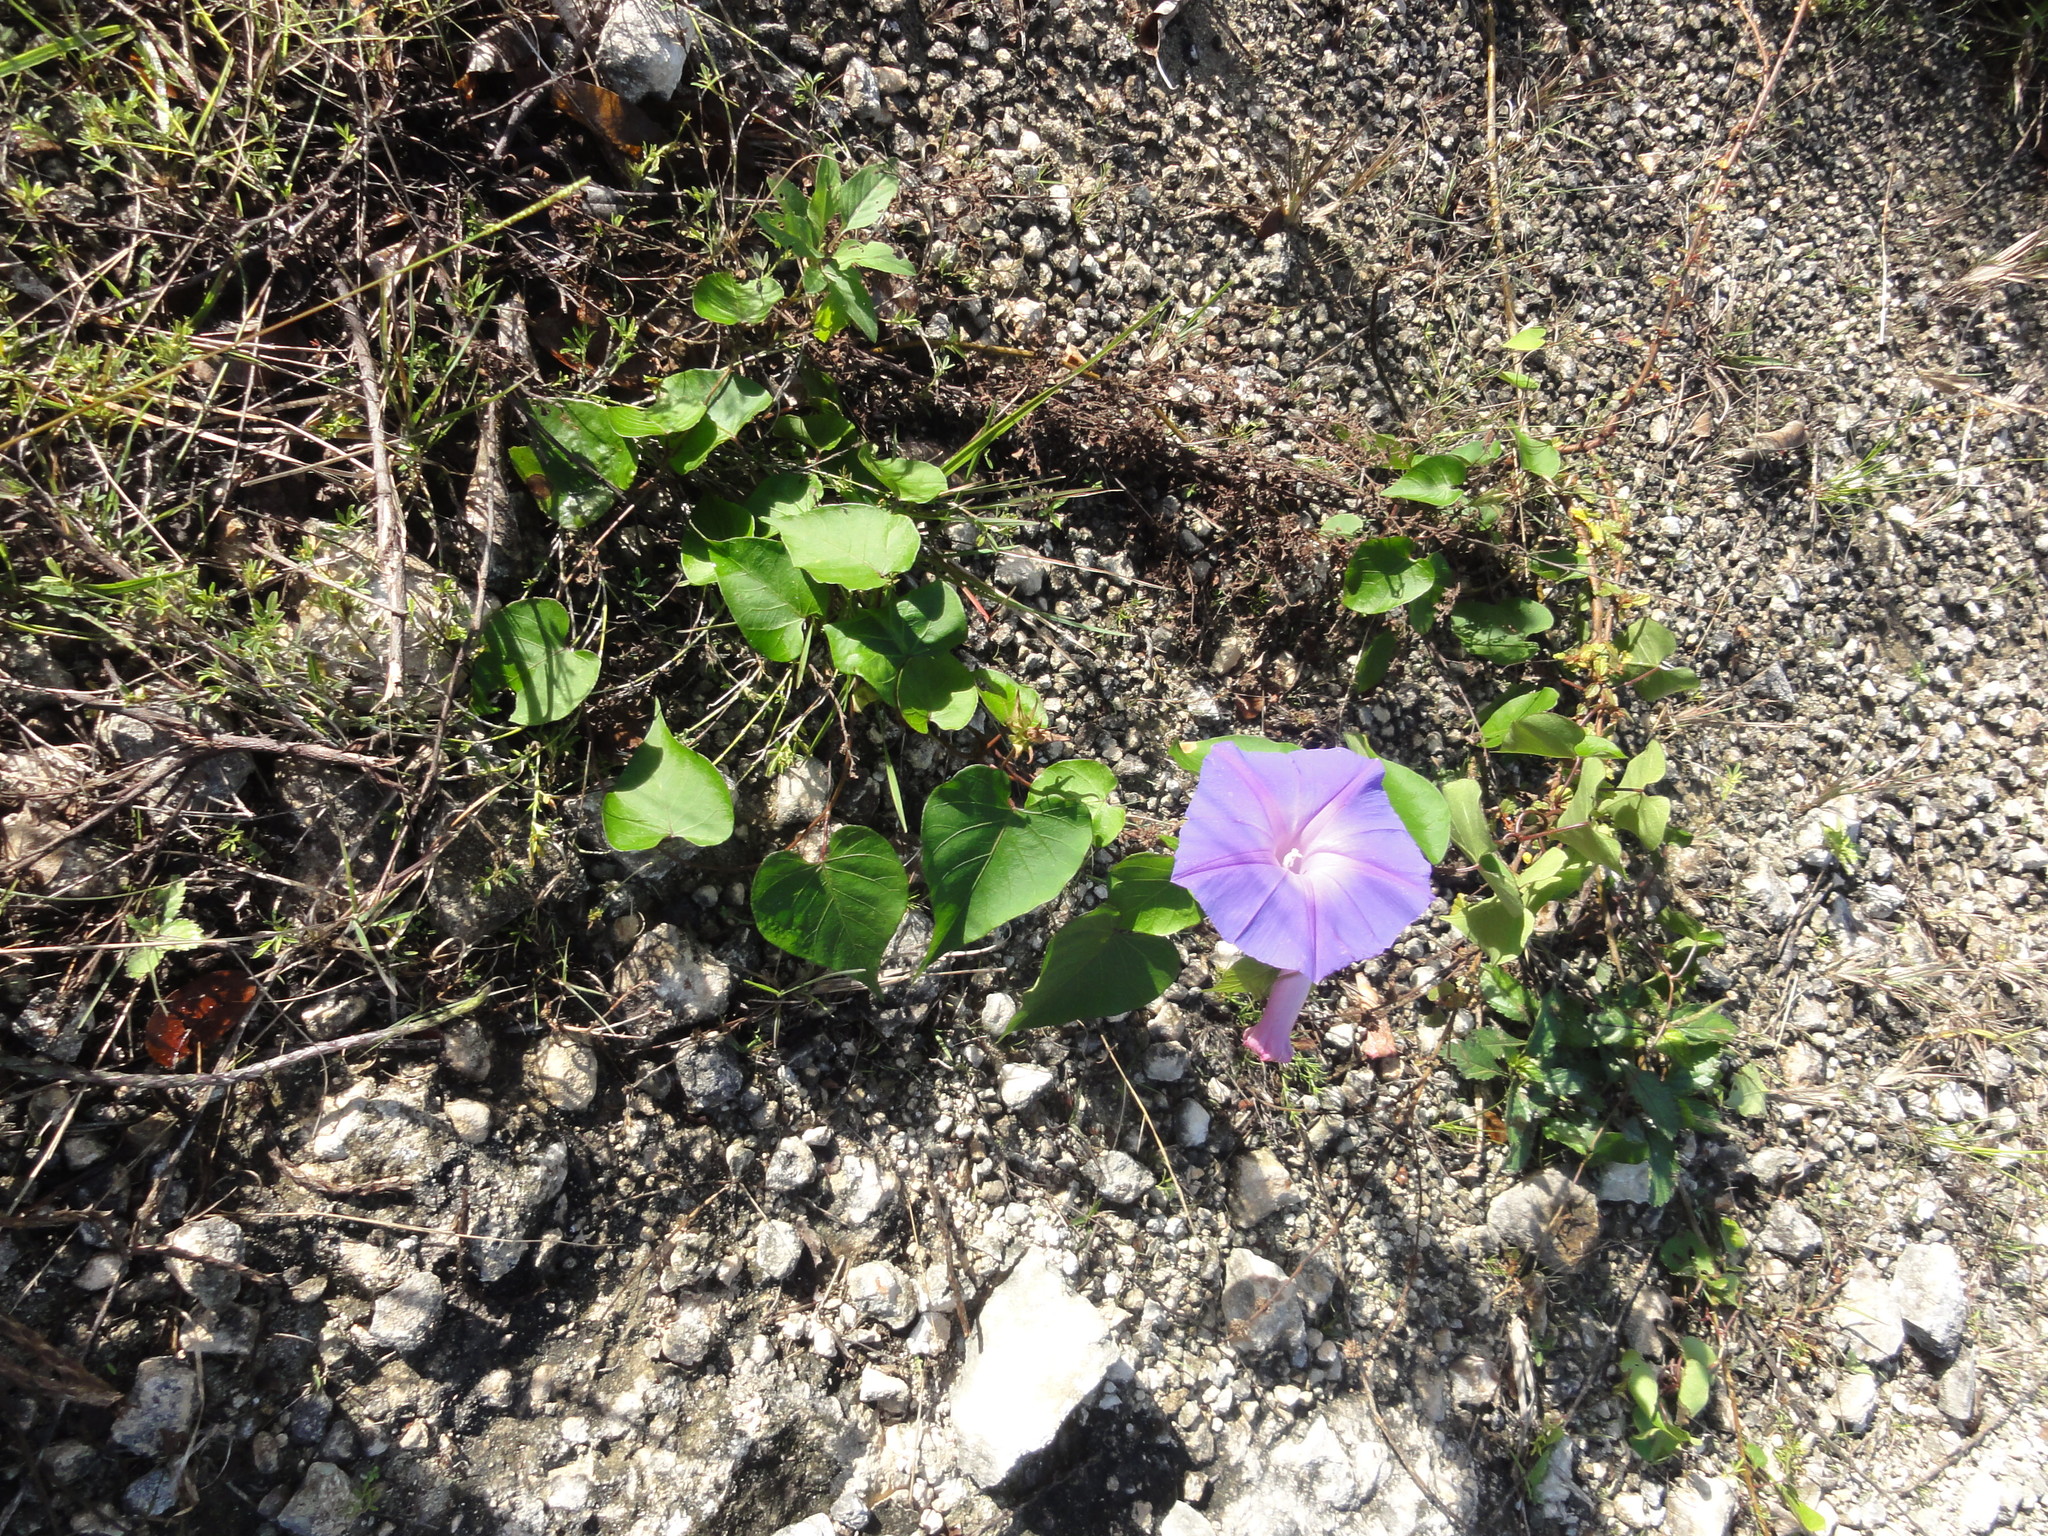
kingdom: Plantae
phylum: Tracheophyta
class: Magnoliopsida
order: Solanales
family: Convolvulaceae
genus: Ipomoea
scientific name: Ipomoea indica
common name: Blue dawnflower
